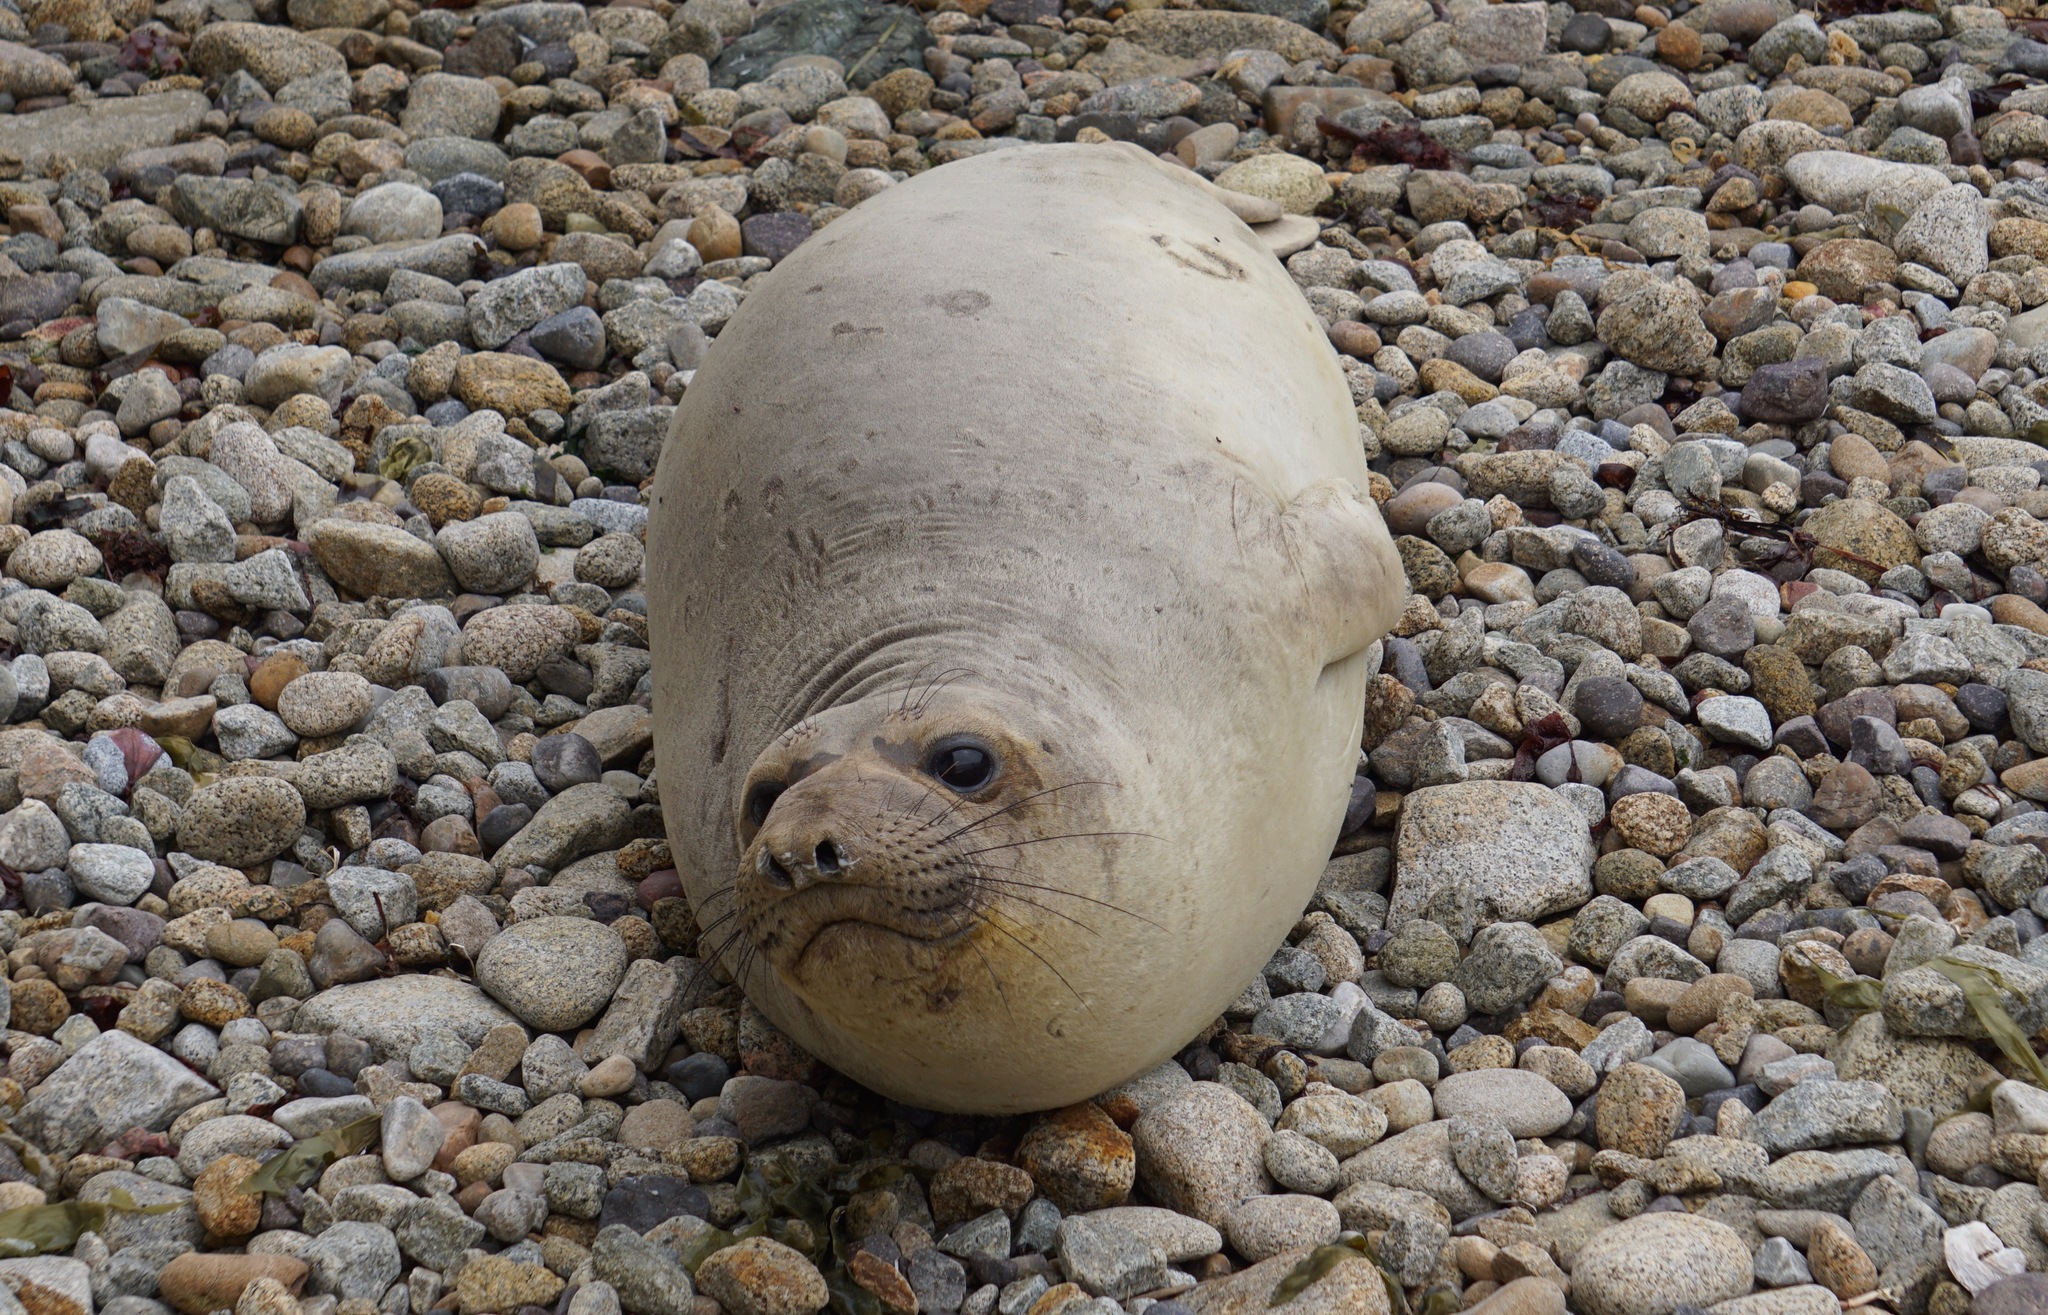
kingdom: Animalia
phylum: Chordata
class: Mammalia
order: Carnivora
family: Phocidae
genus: Mirounga
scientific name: Mirounga angustirostris
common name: Northern elephant seal
